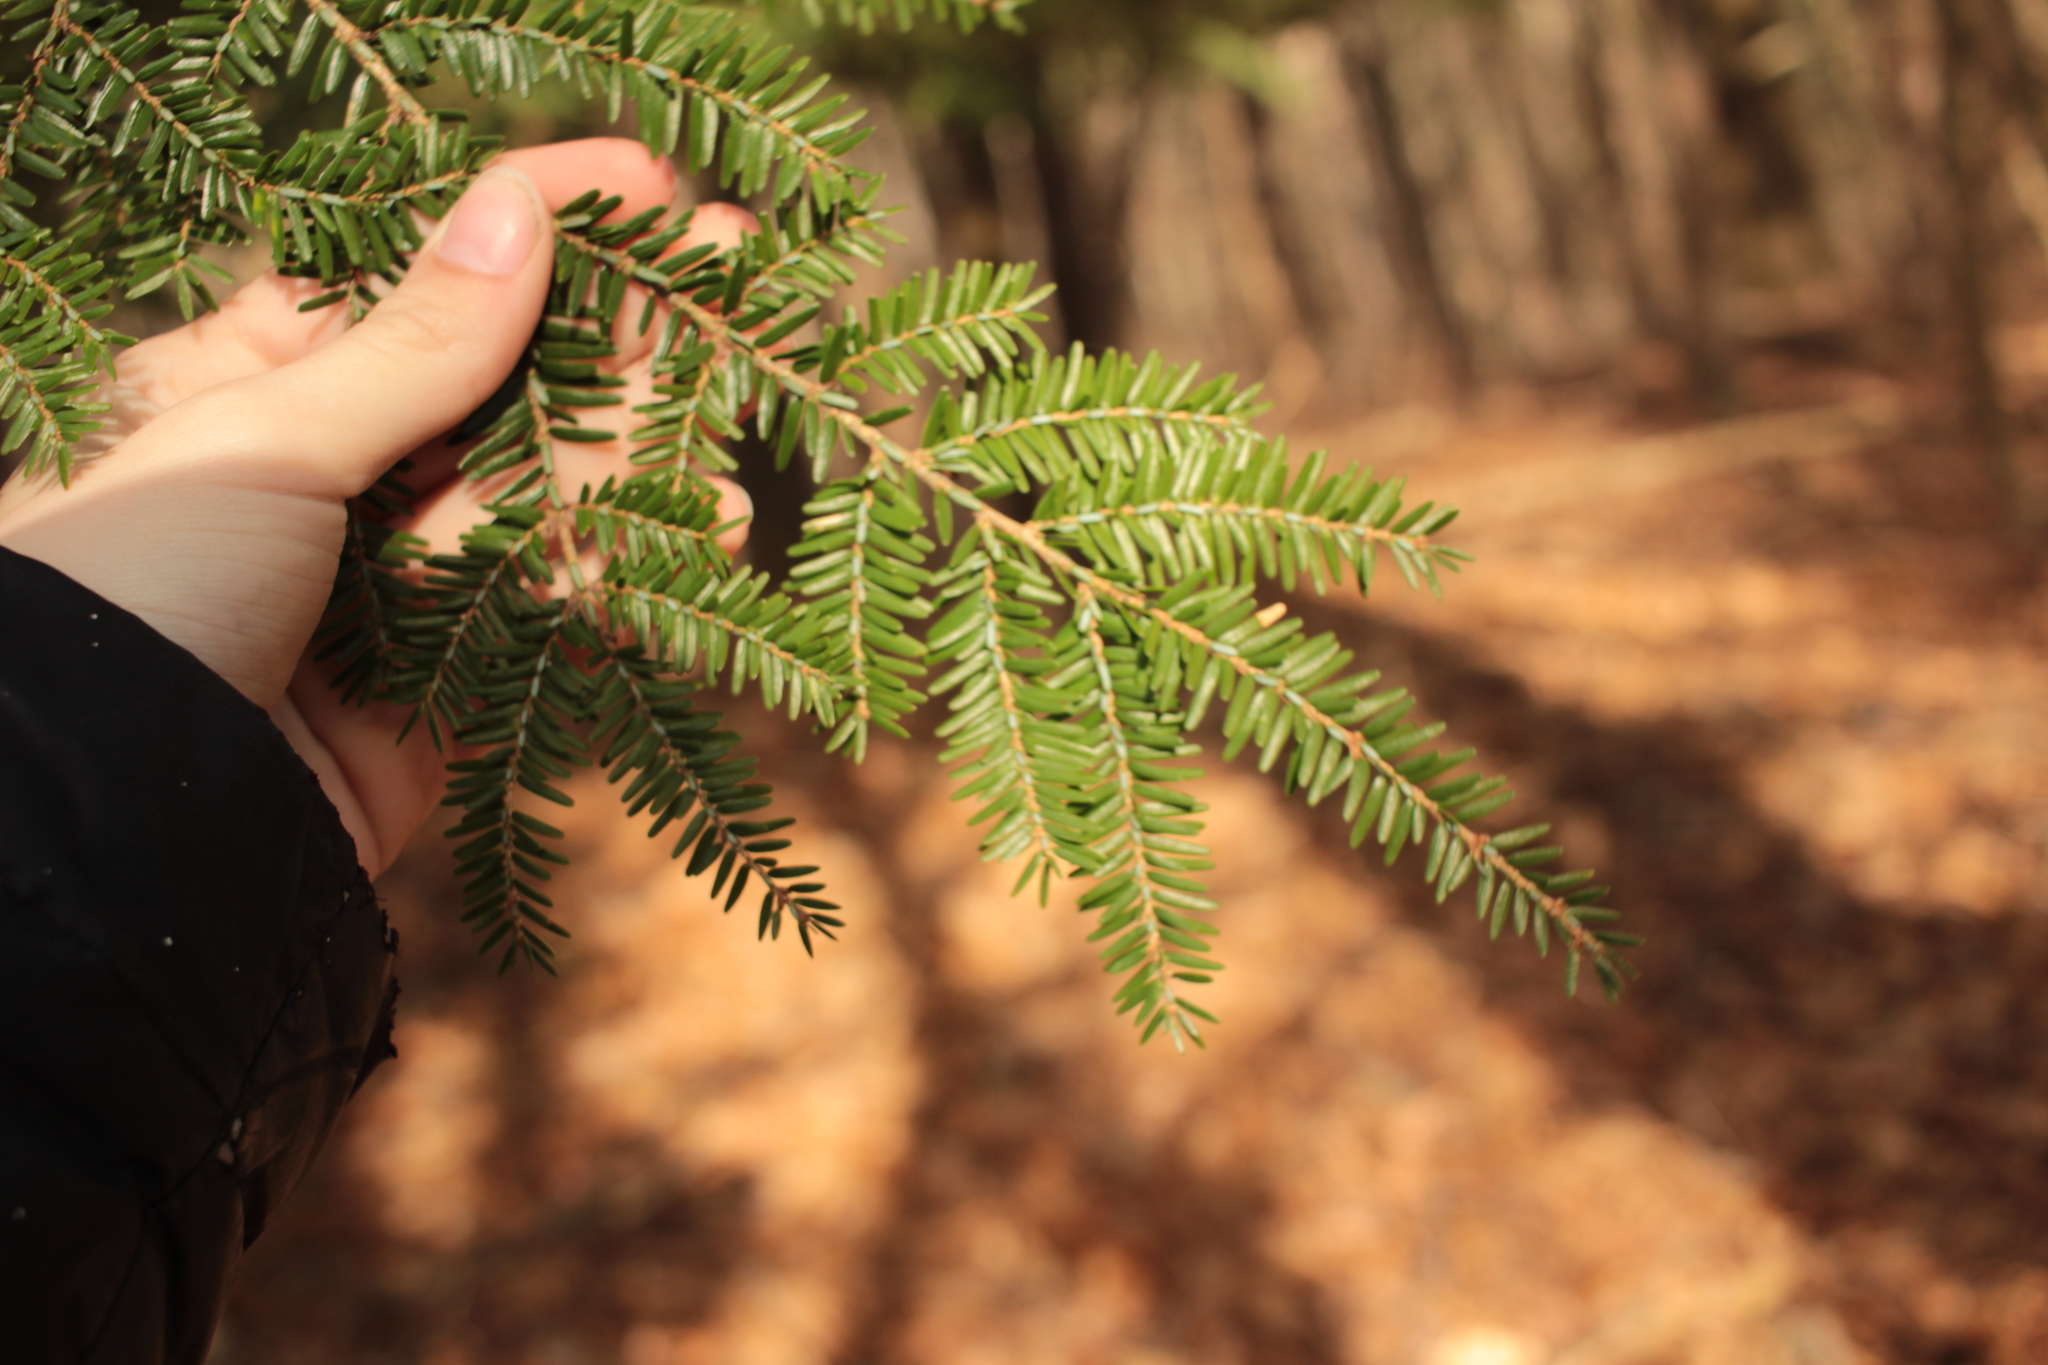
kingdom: Plantae
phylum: Tracheophyta
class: Pinopsida
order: Pinales
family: Pinaceae
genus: Tsuga
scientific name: Tsuga canadensis
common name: Eastern hemlock
